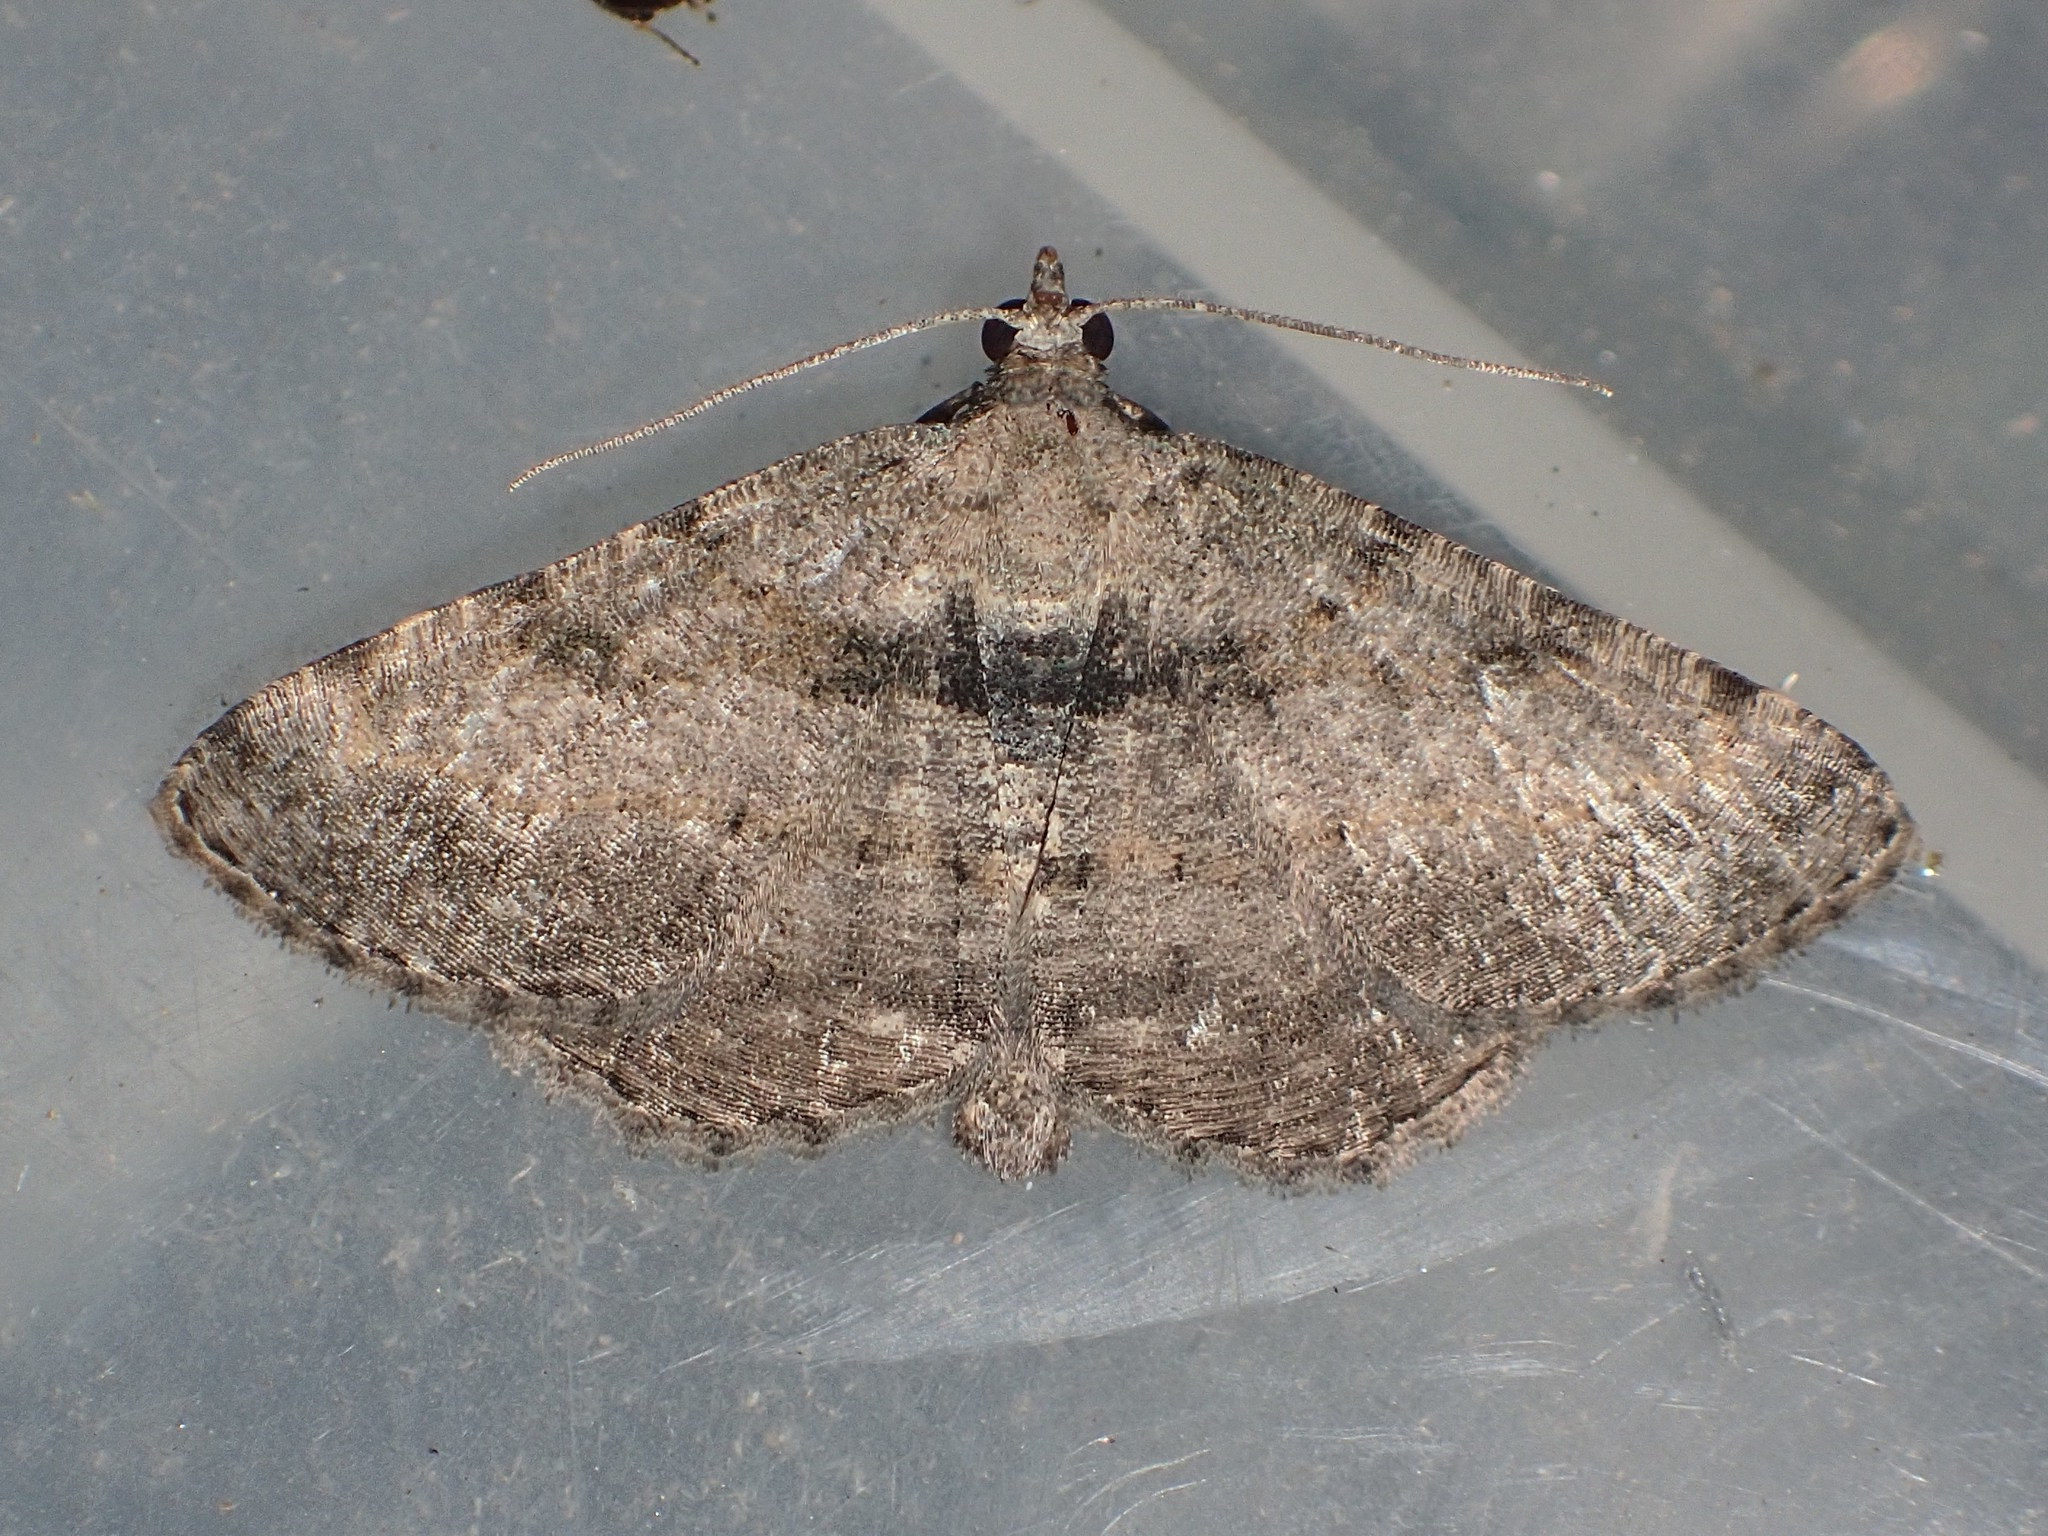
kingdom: Animalia
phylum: Arthropoda
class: Insecta
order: Lepidoptera
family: Geometridae
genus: Costaconvexa
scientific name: Costaconvexa centrostrigaria
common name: Bent-line carpet
